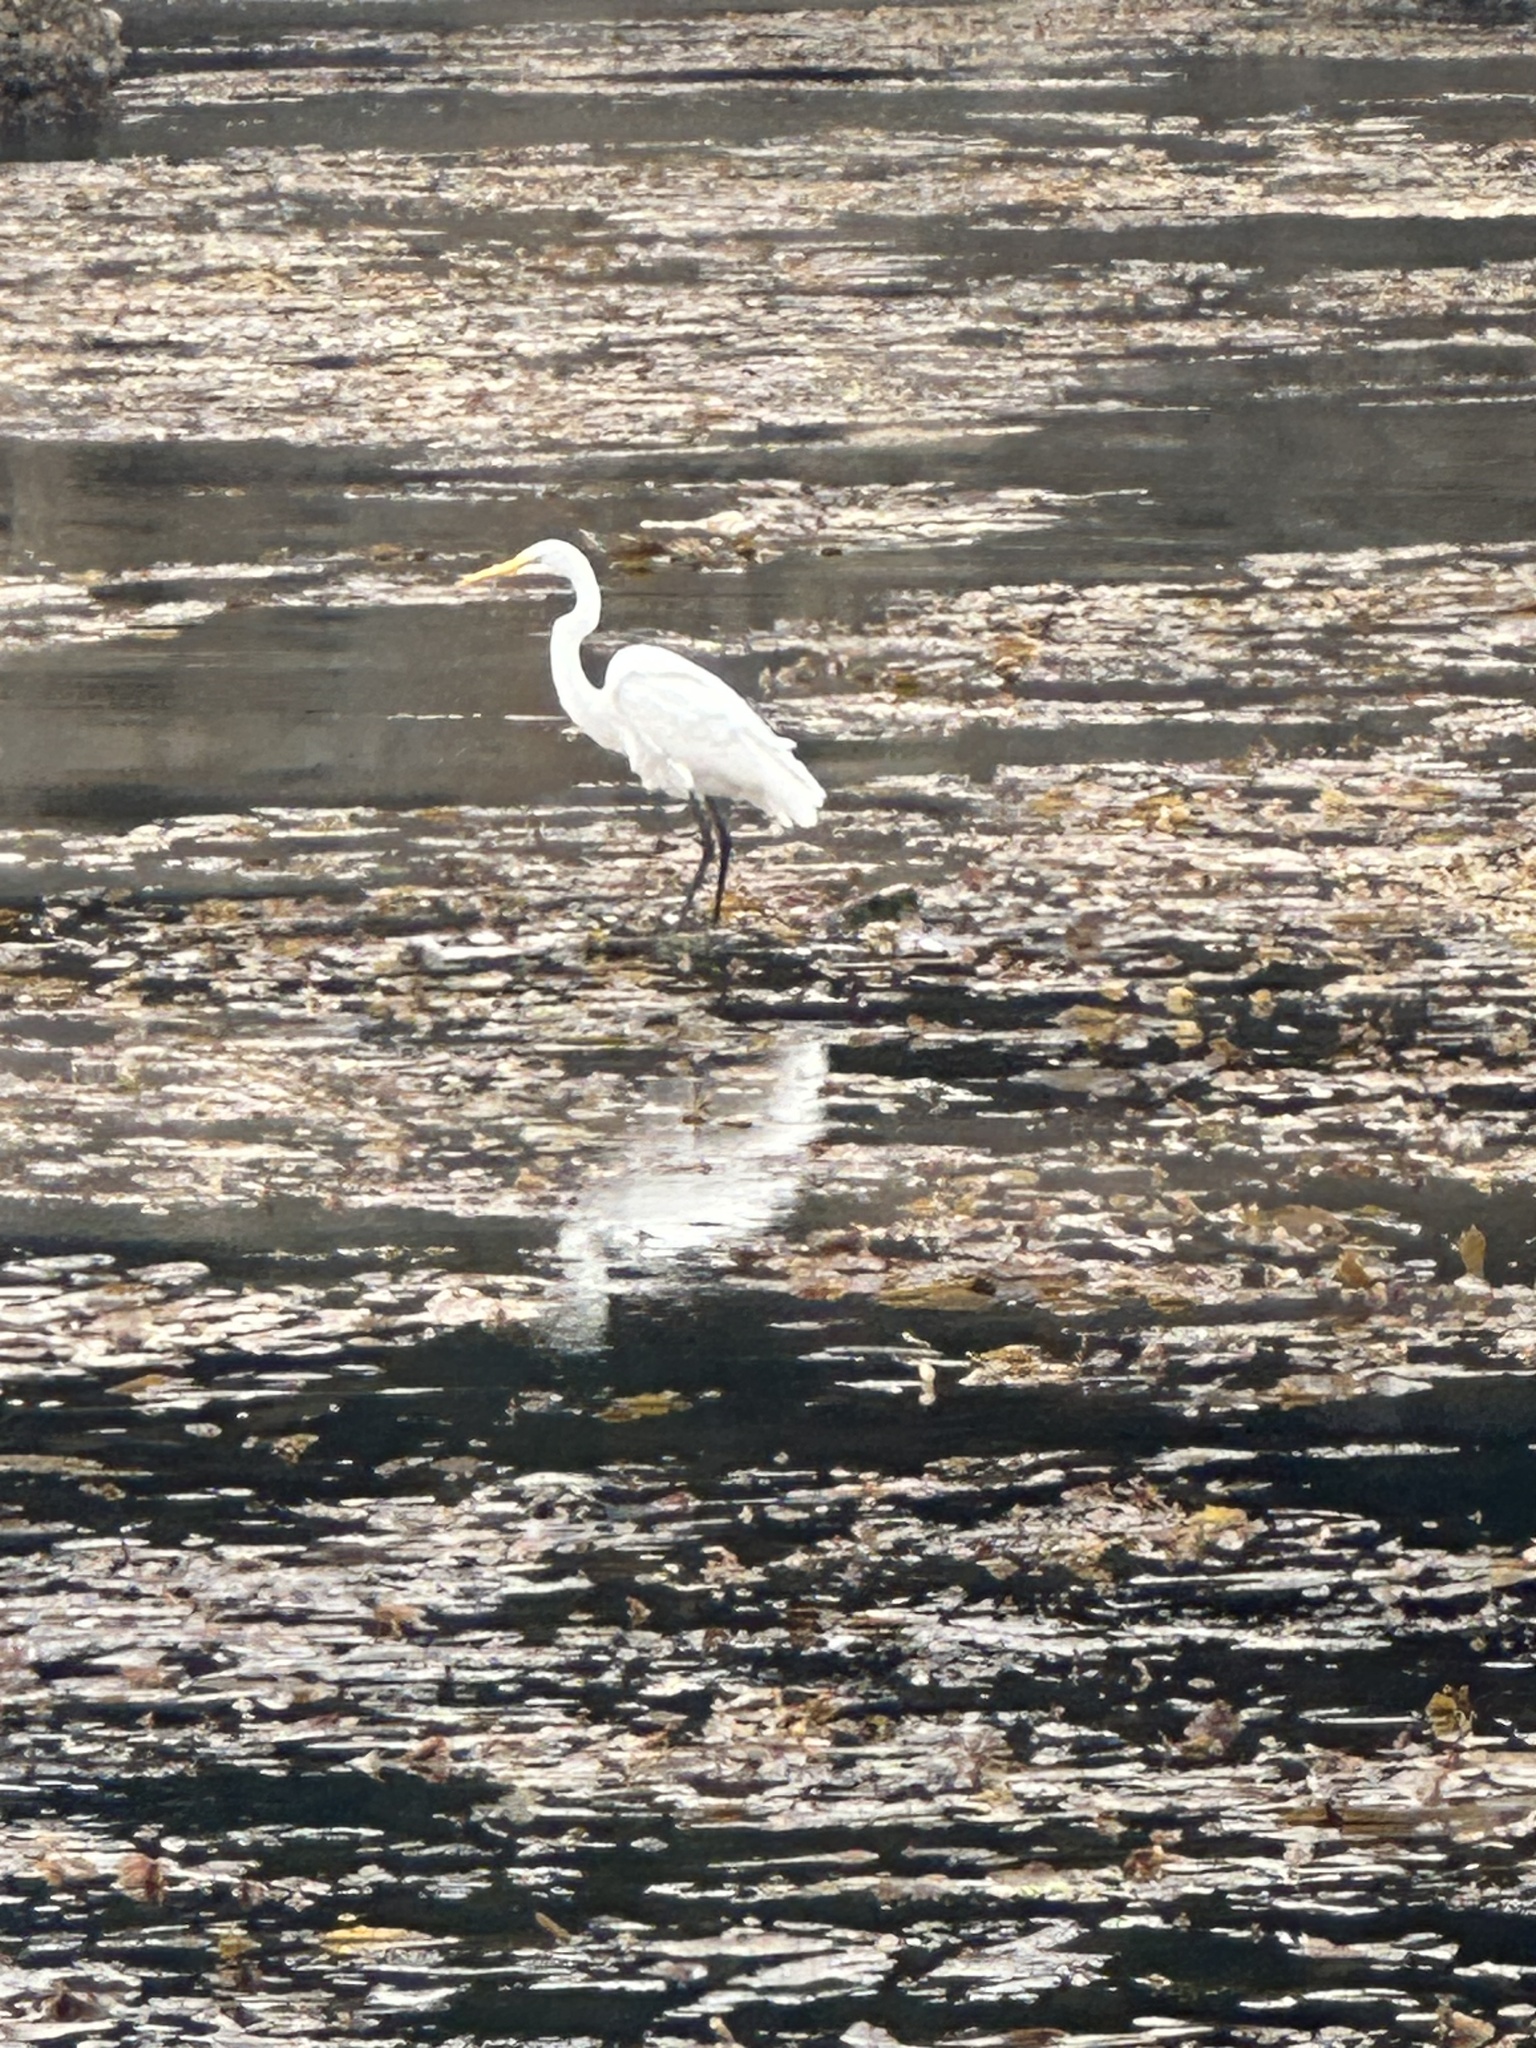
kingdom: Animalia
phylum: Chordata
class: Aves
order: Pelecaniformes
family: Ardeidae
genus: Ardea
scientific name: Ardea alba
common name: Great egret
